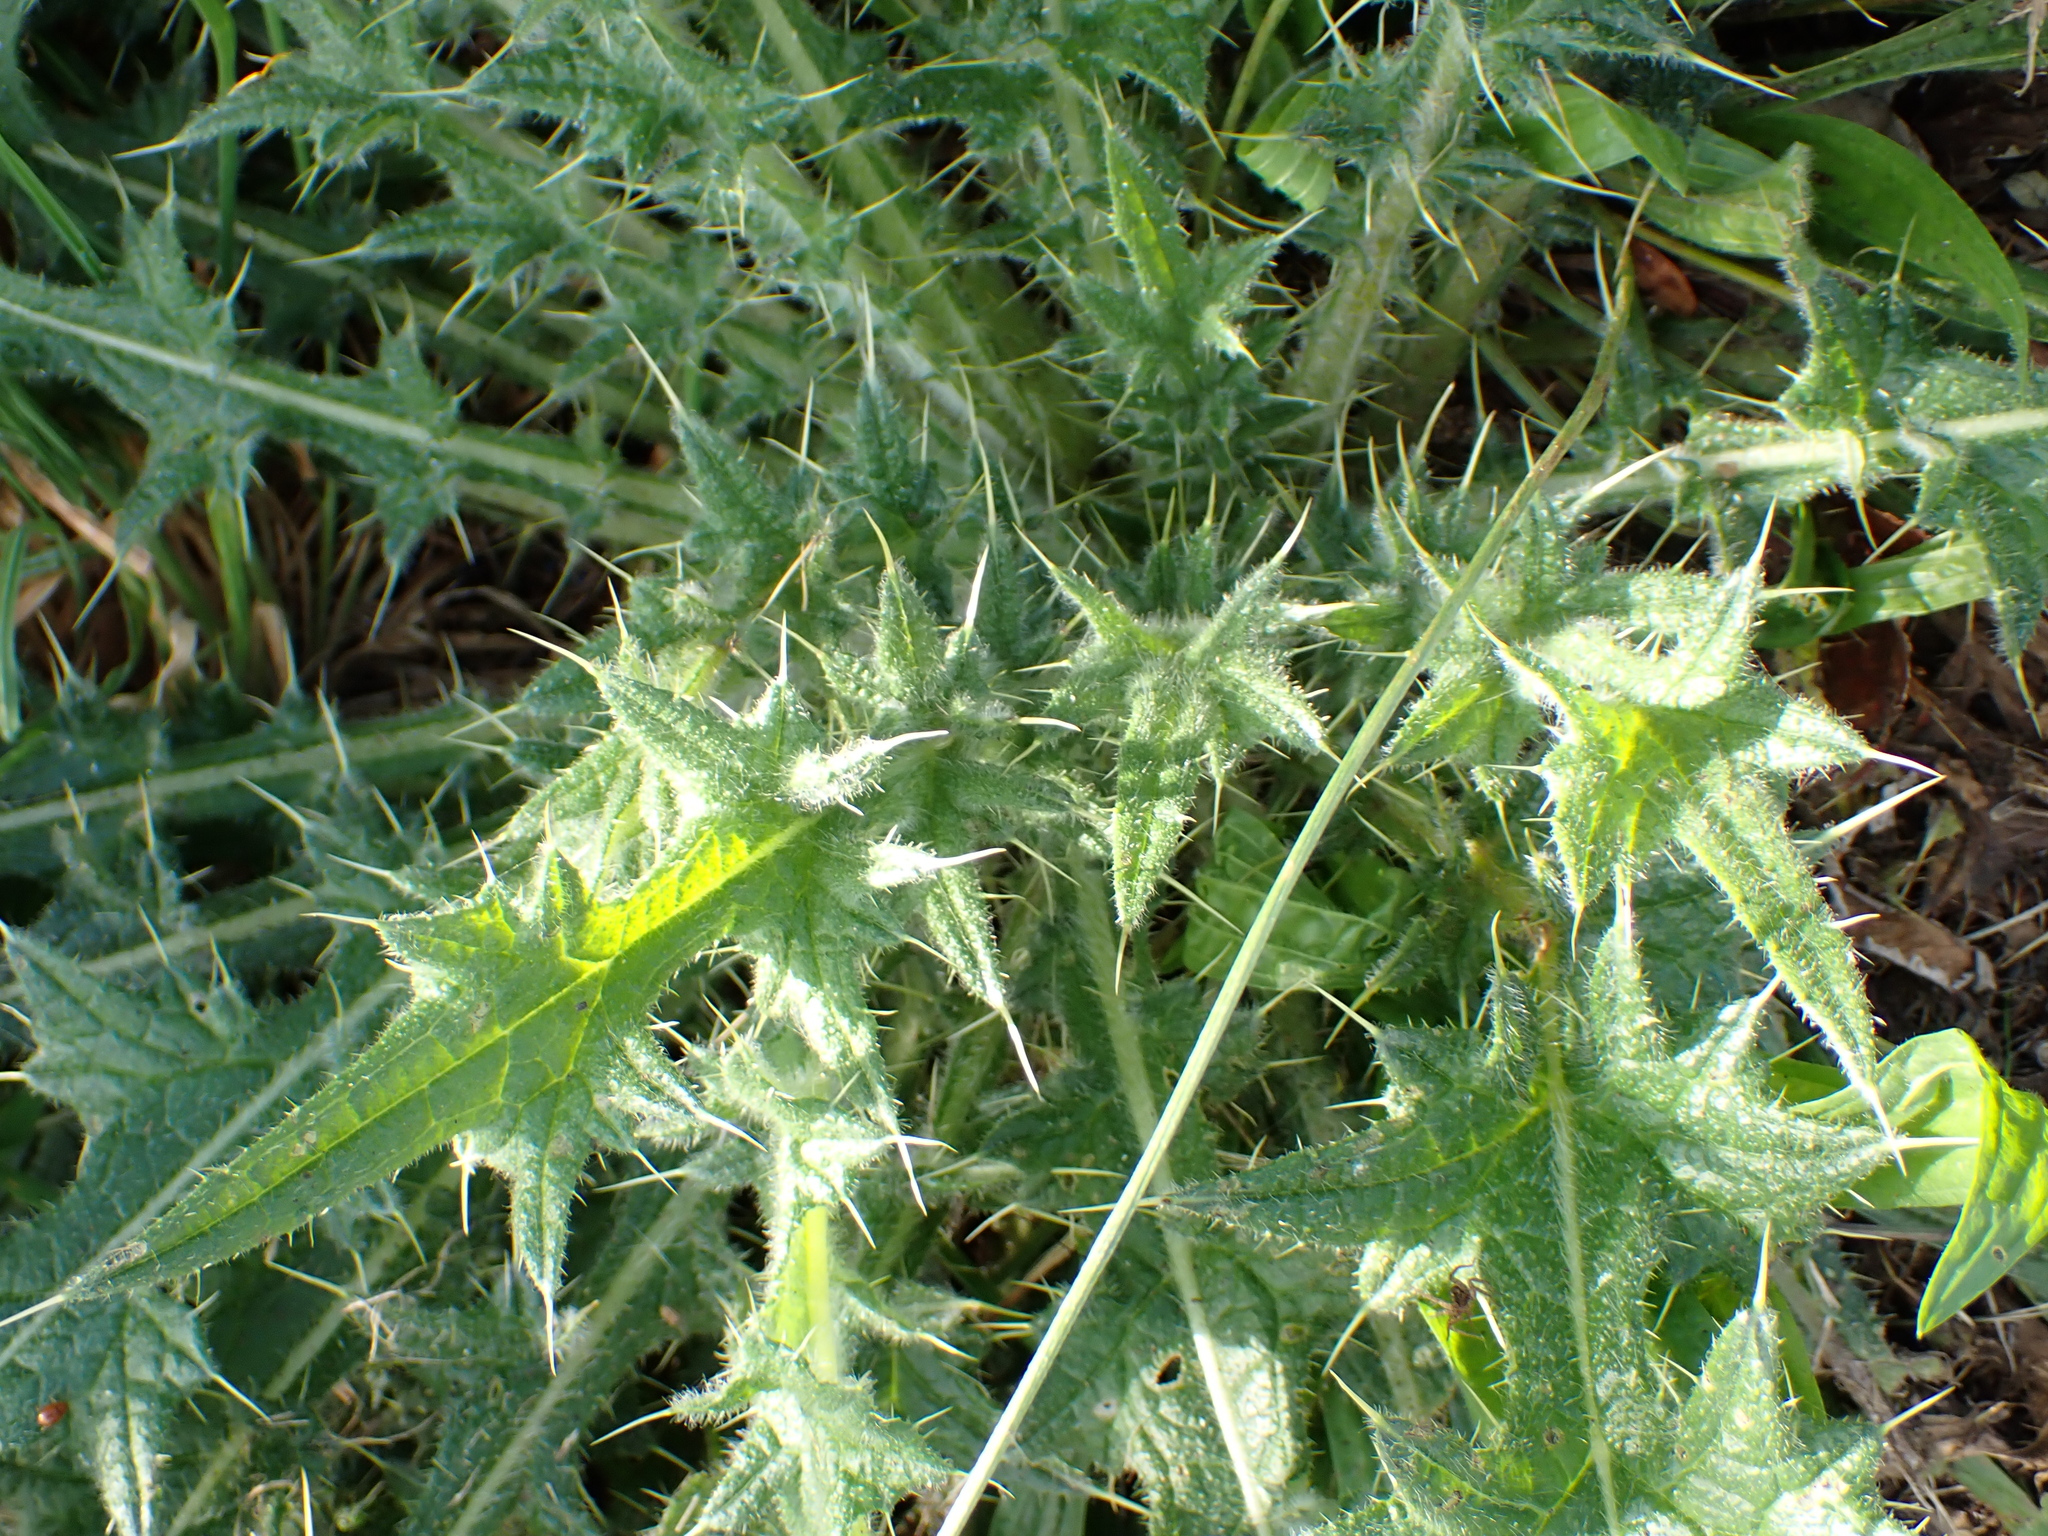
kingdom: Plantae
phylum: Tracheophyta
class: Magnoliopsida
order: Asterales
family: Asteraceae
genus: Cirsium
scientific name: Cirsium vulgare
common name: Bull thistle
